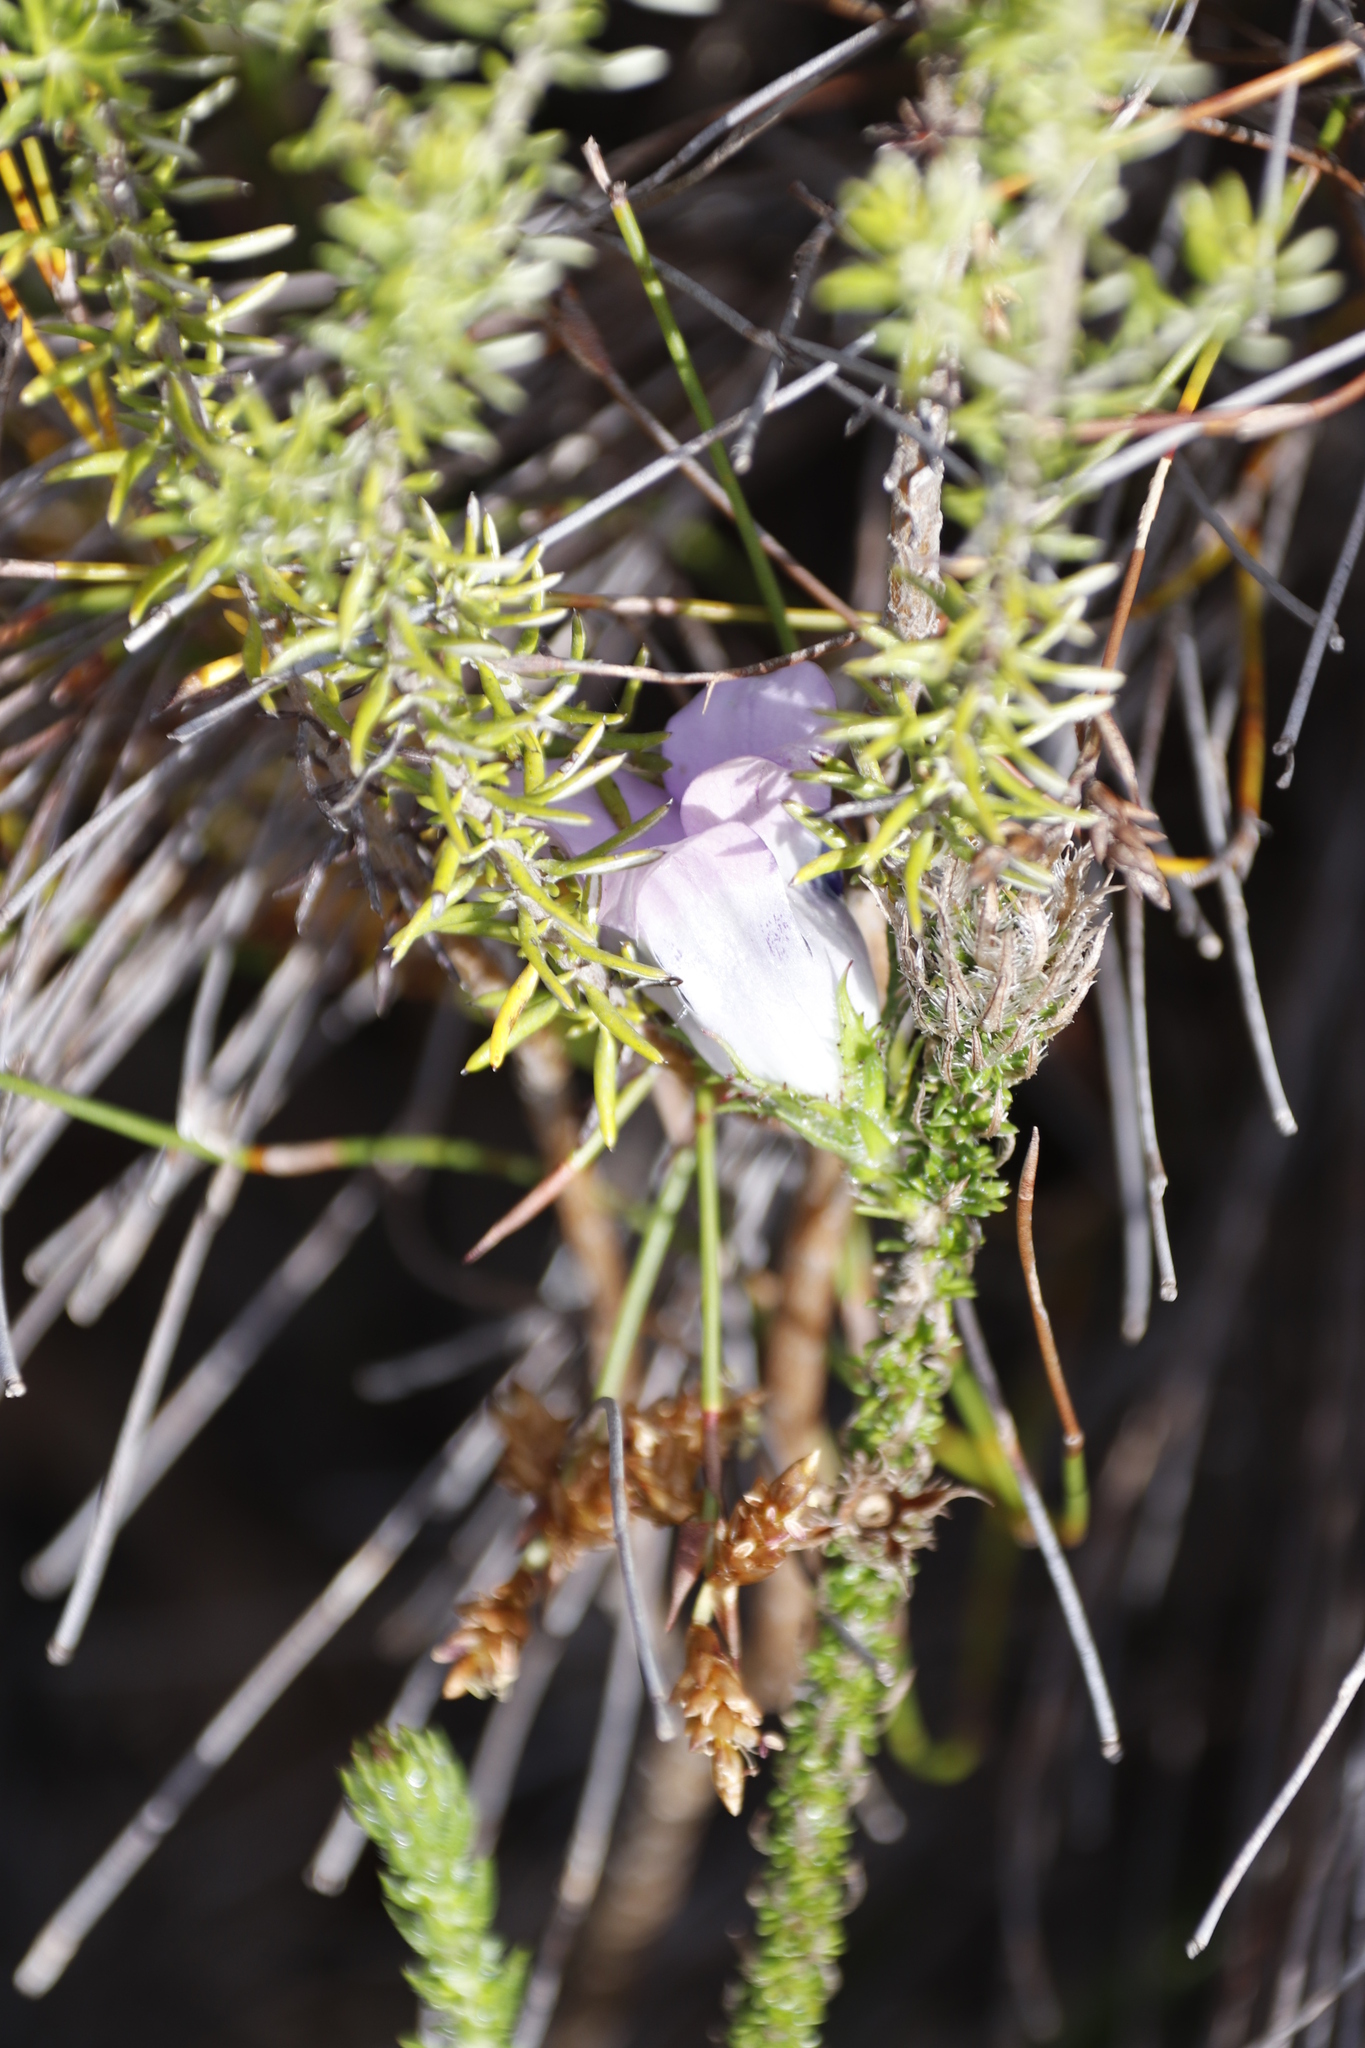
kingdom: Plantae
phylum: Tracheophyta
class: Magnoliopsida
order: Asterales
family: Campanulaceae
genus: Roella
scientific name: Roella ciliata
